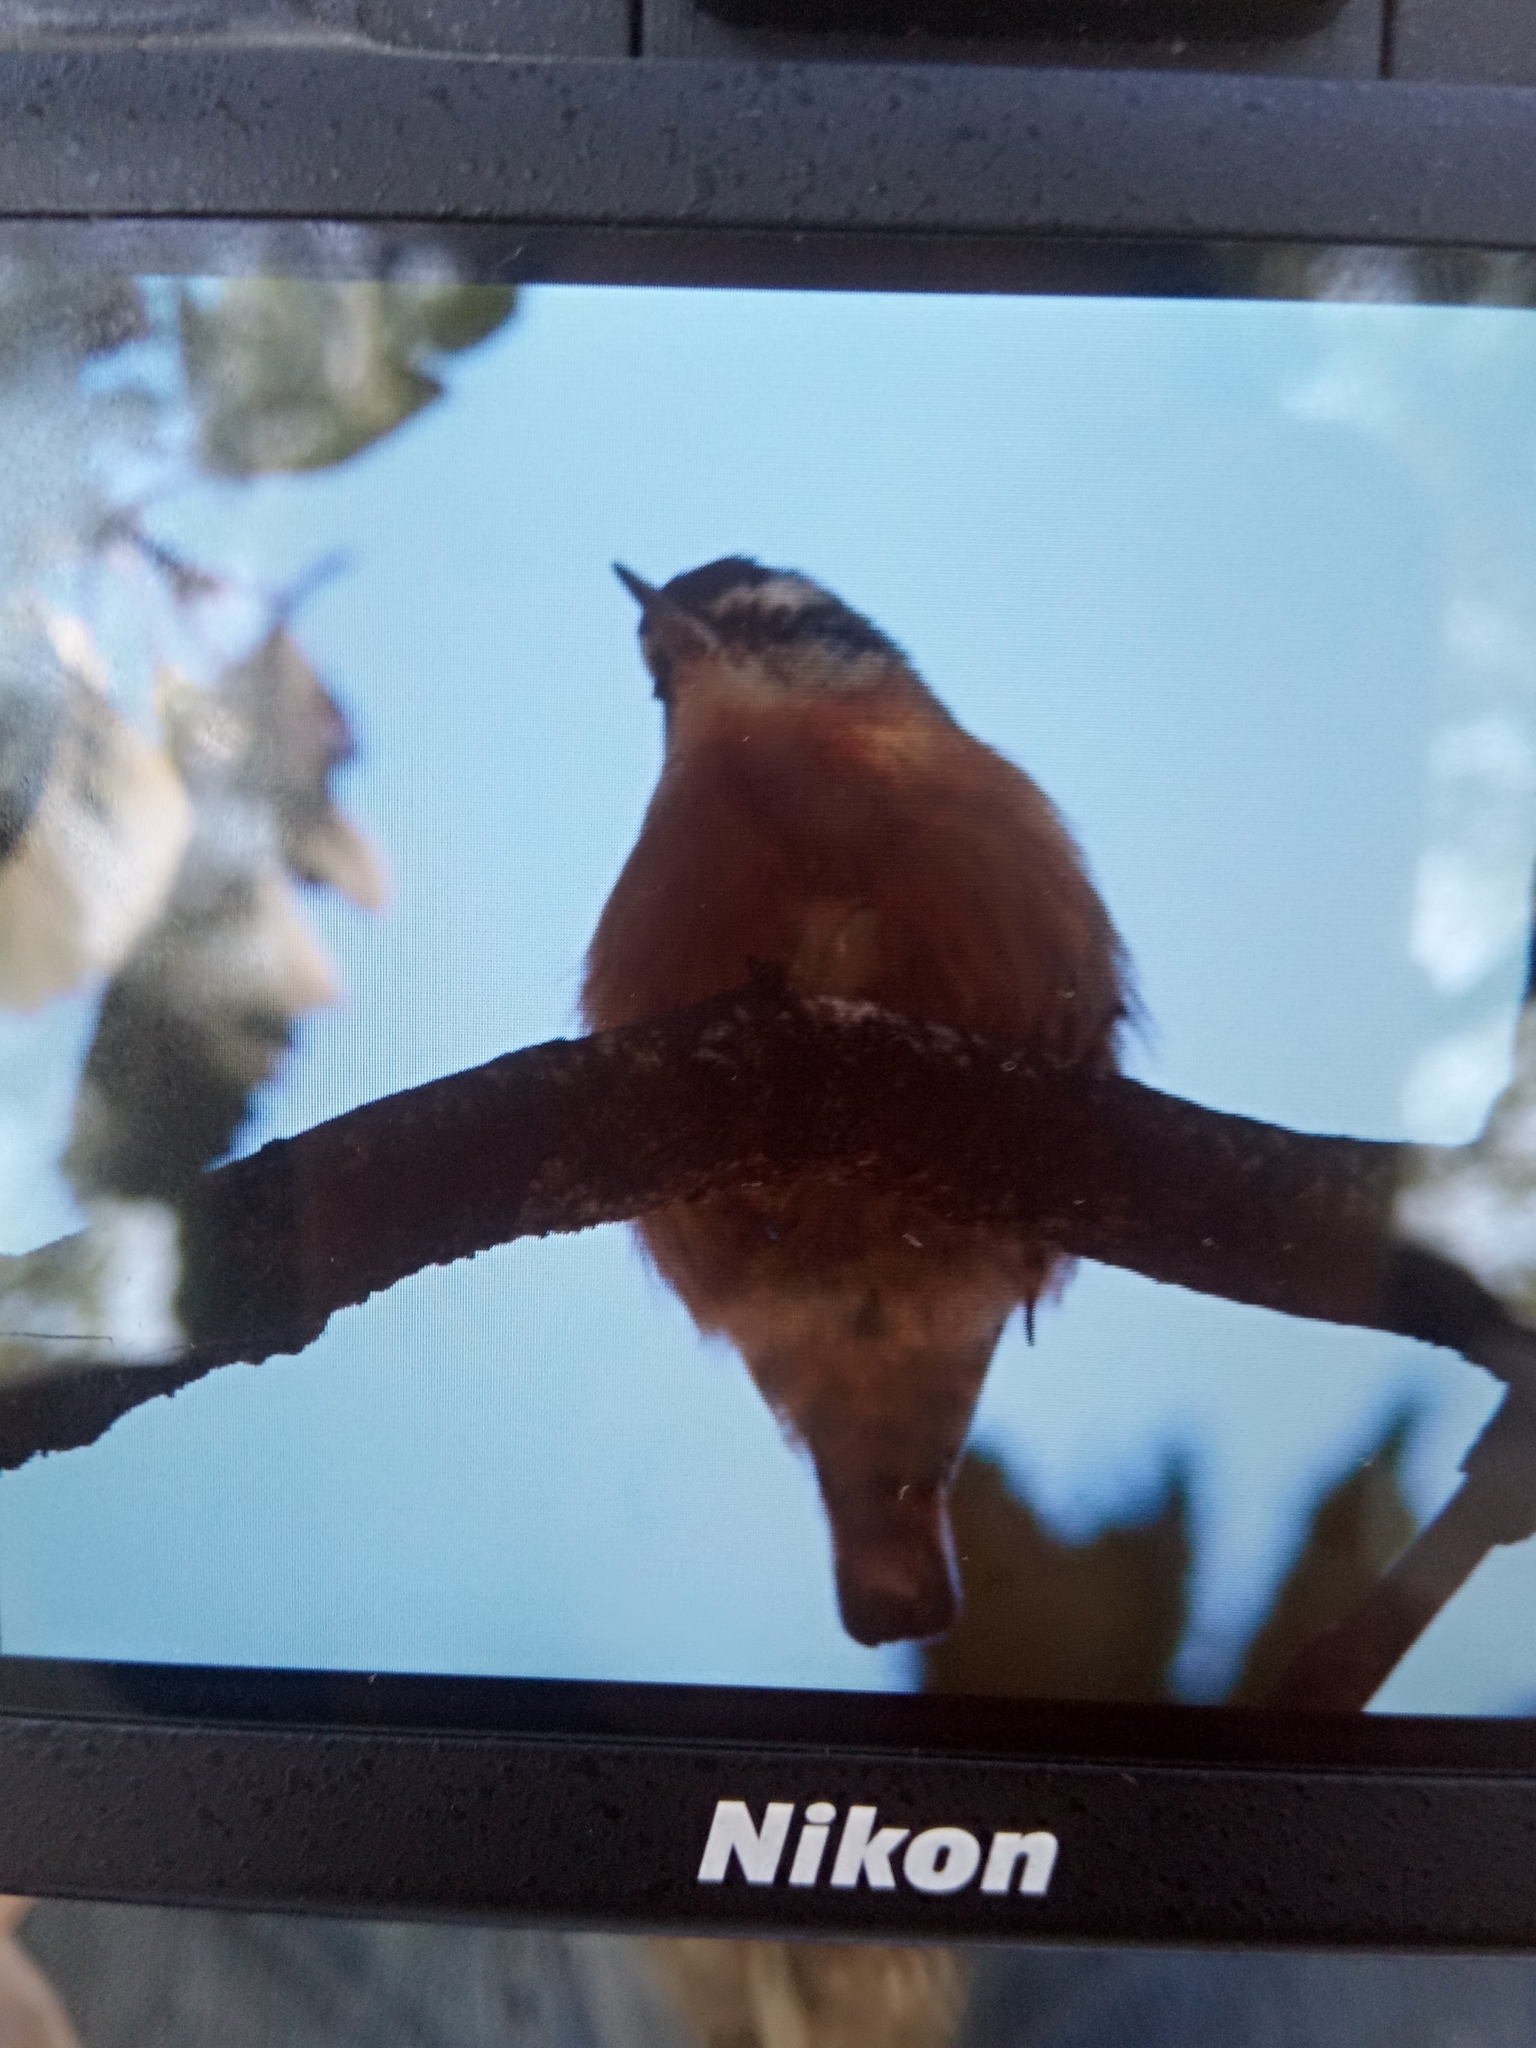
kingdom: Animalia
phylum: Chordata
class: Aves
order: Passeriformes
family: Sittidae
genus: Sitta
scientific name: Sitta ledanti
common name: Algerian nuthatch
